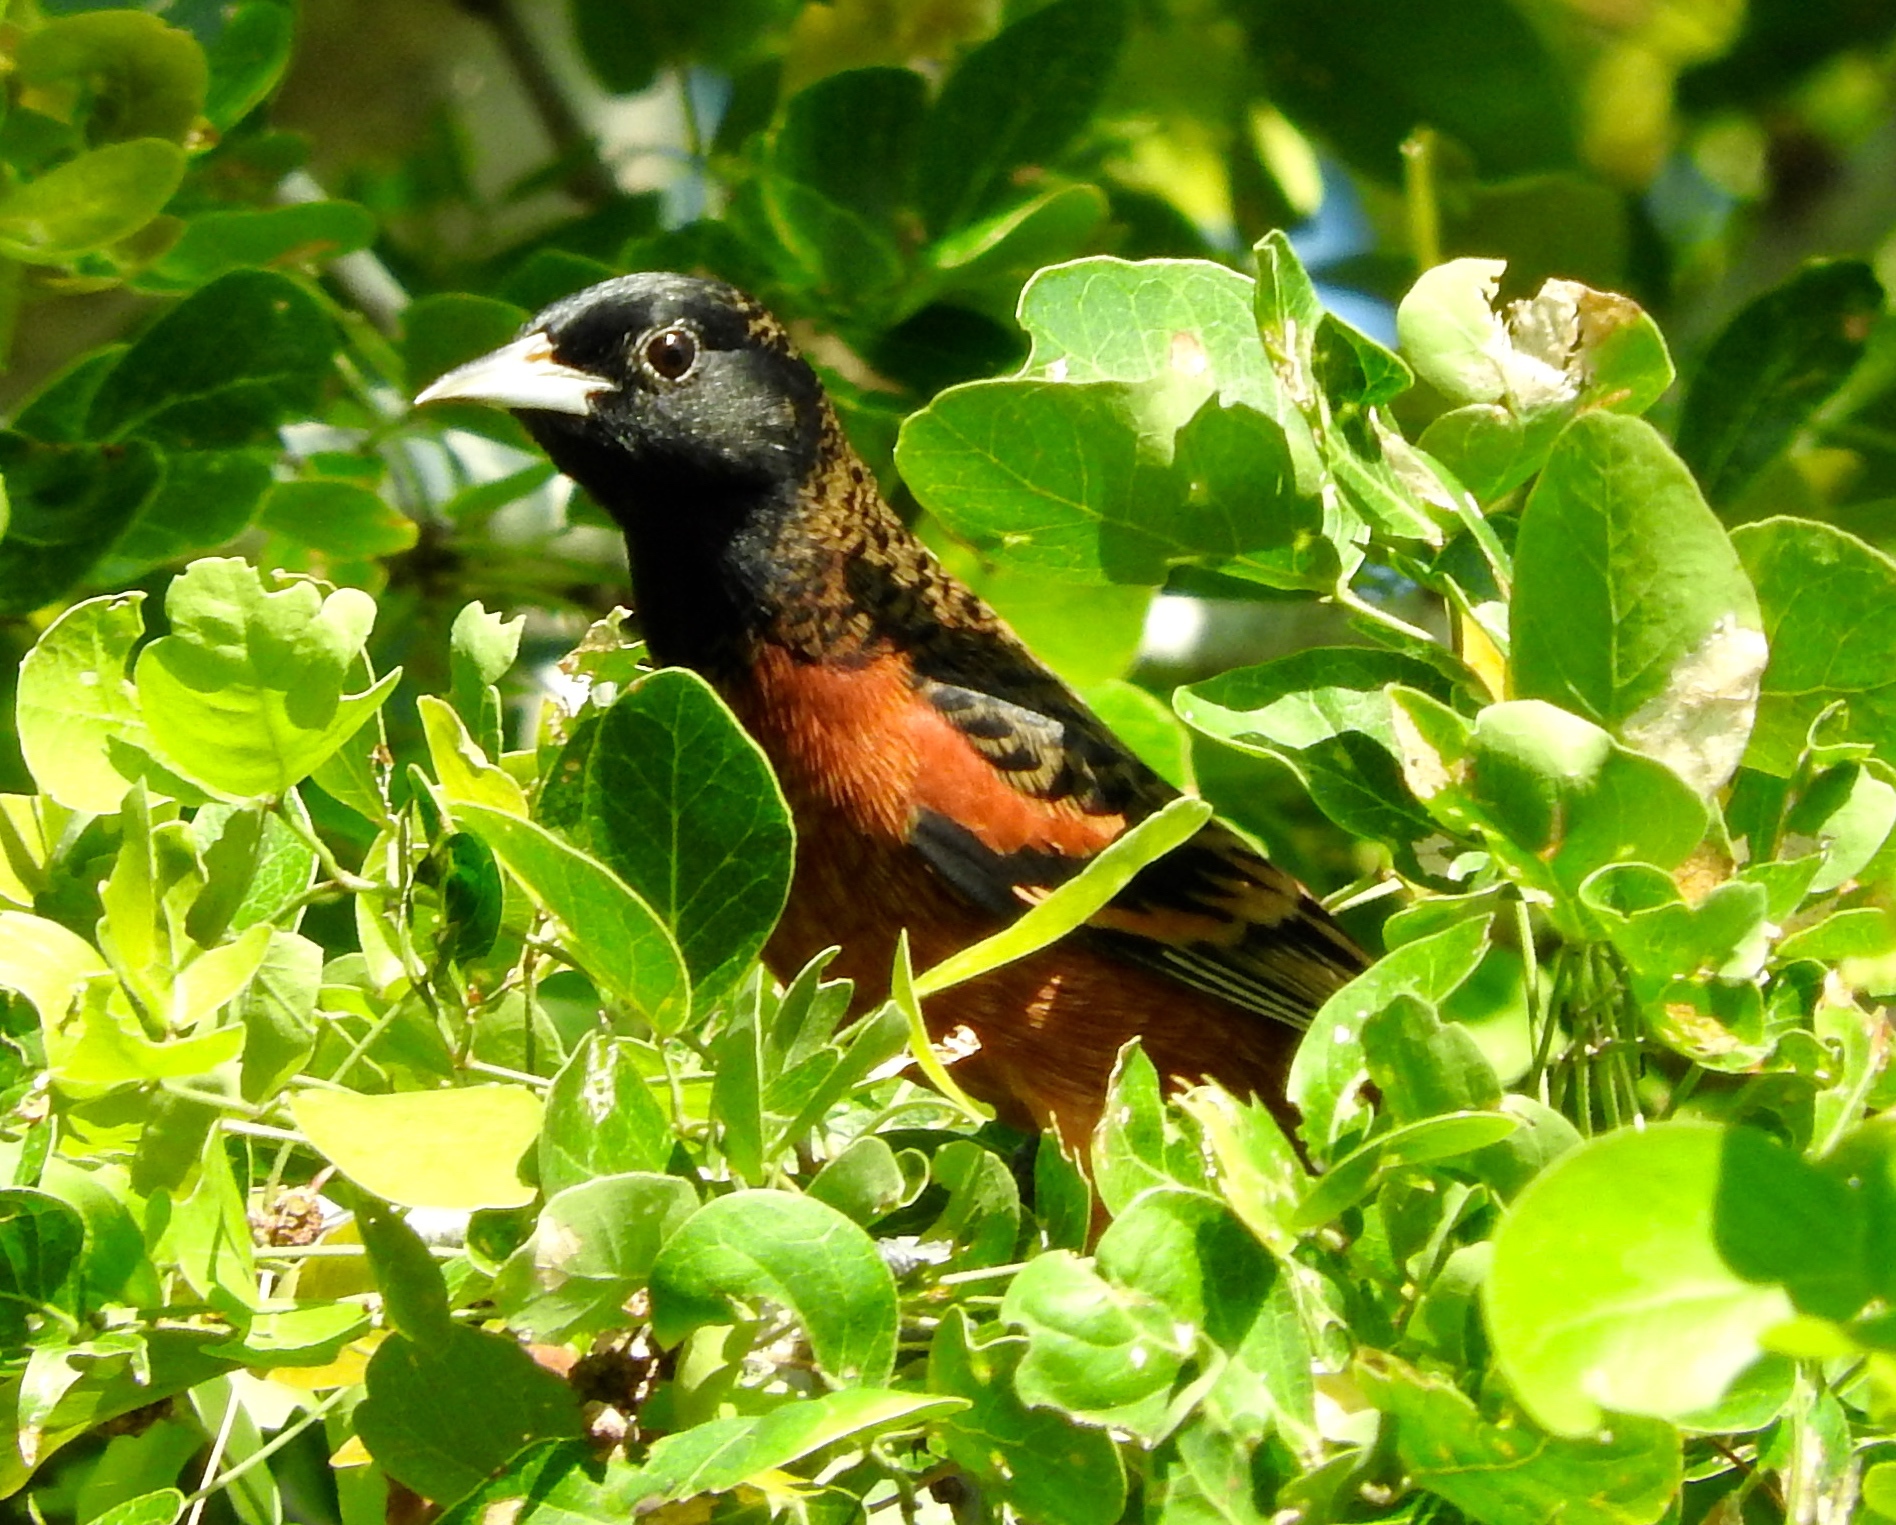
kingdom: Animalia
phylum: Chordata
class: Aves
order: Passeriformes
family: Icteridae
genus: Icterus
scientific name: Icterus spurius
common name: Orchard oriole
